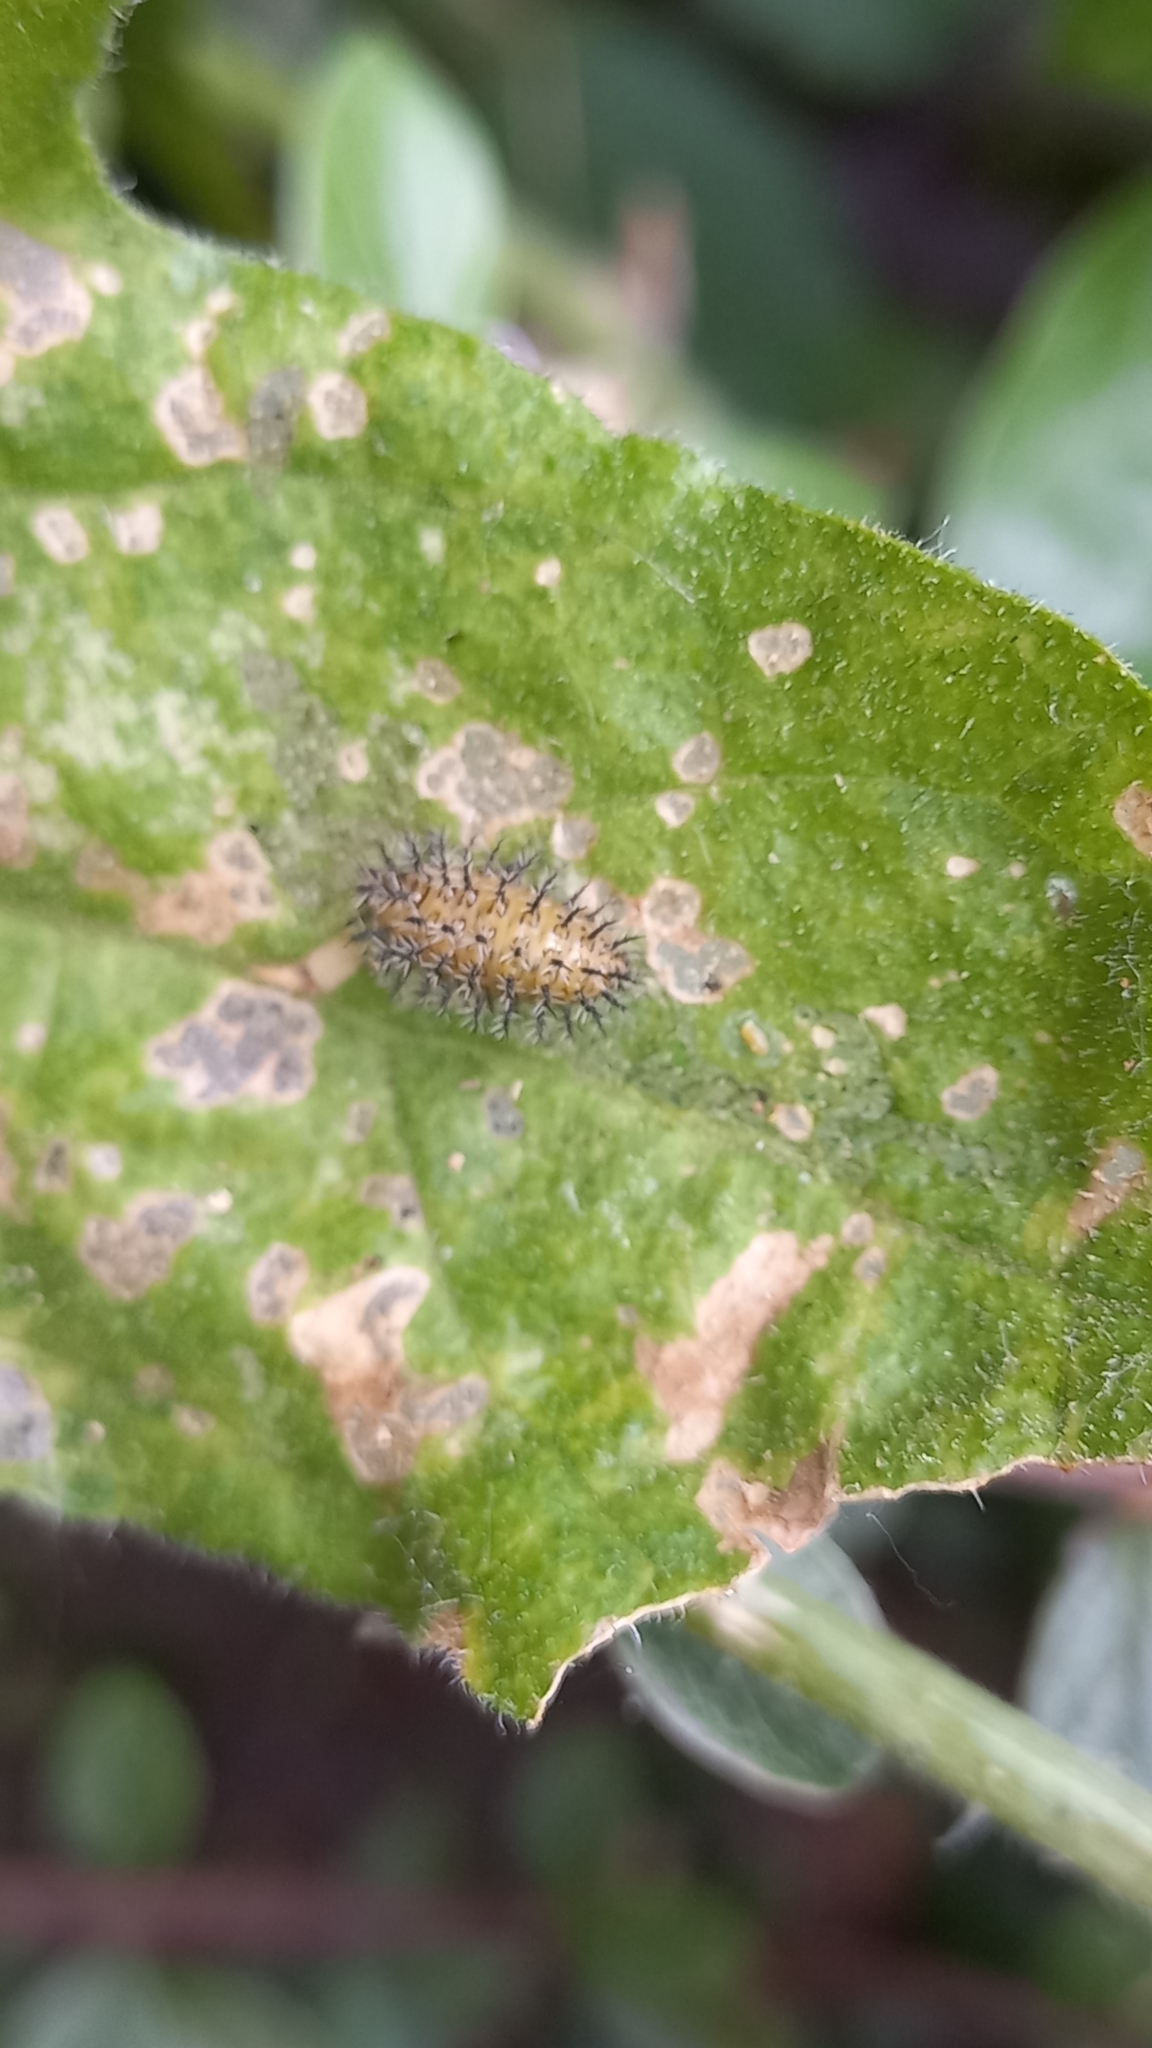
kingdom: Animalia
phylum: Arthropoda
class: Insecta
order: Coleoptera
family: Coccinellidae
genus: Henosepilachna
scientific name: Henosepilachna argus
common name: Bryony ladybird
